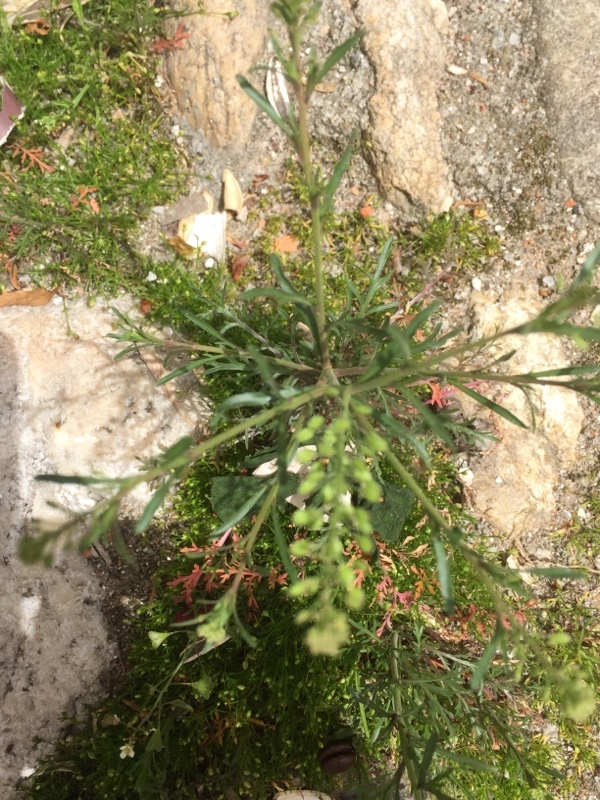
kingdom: Plantae
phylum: Tracheophyta
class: Magnoliopsida
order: Brassicales
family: Brassicaceae
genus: Lepidium
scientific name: Lepidium ruderale
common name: Narrow-leaved pepperwort
